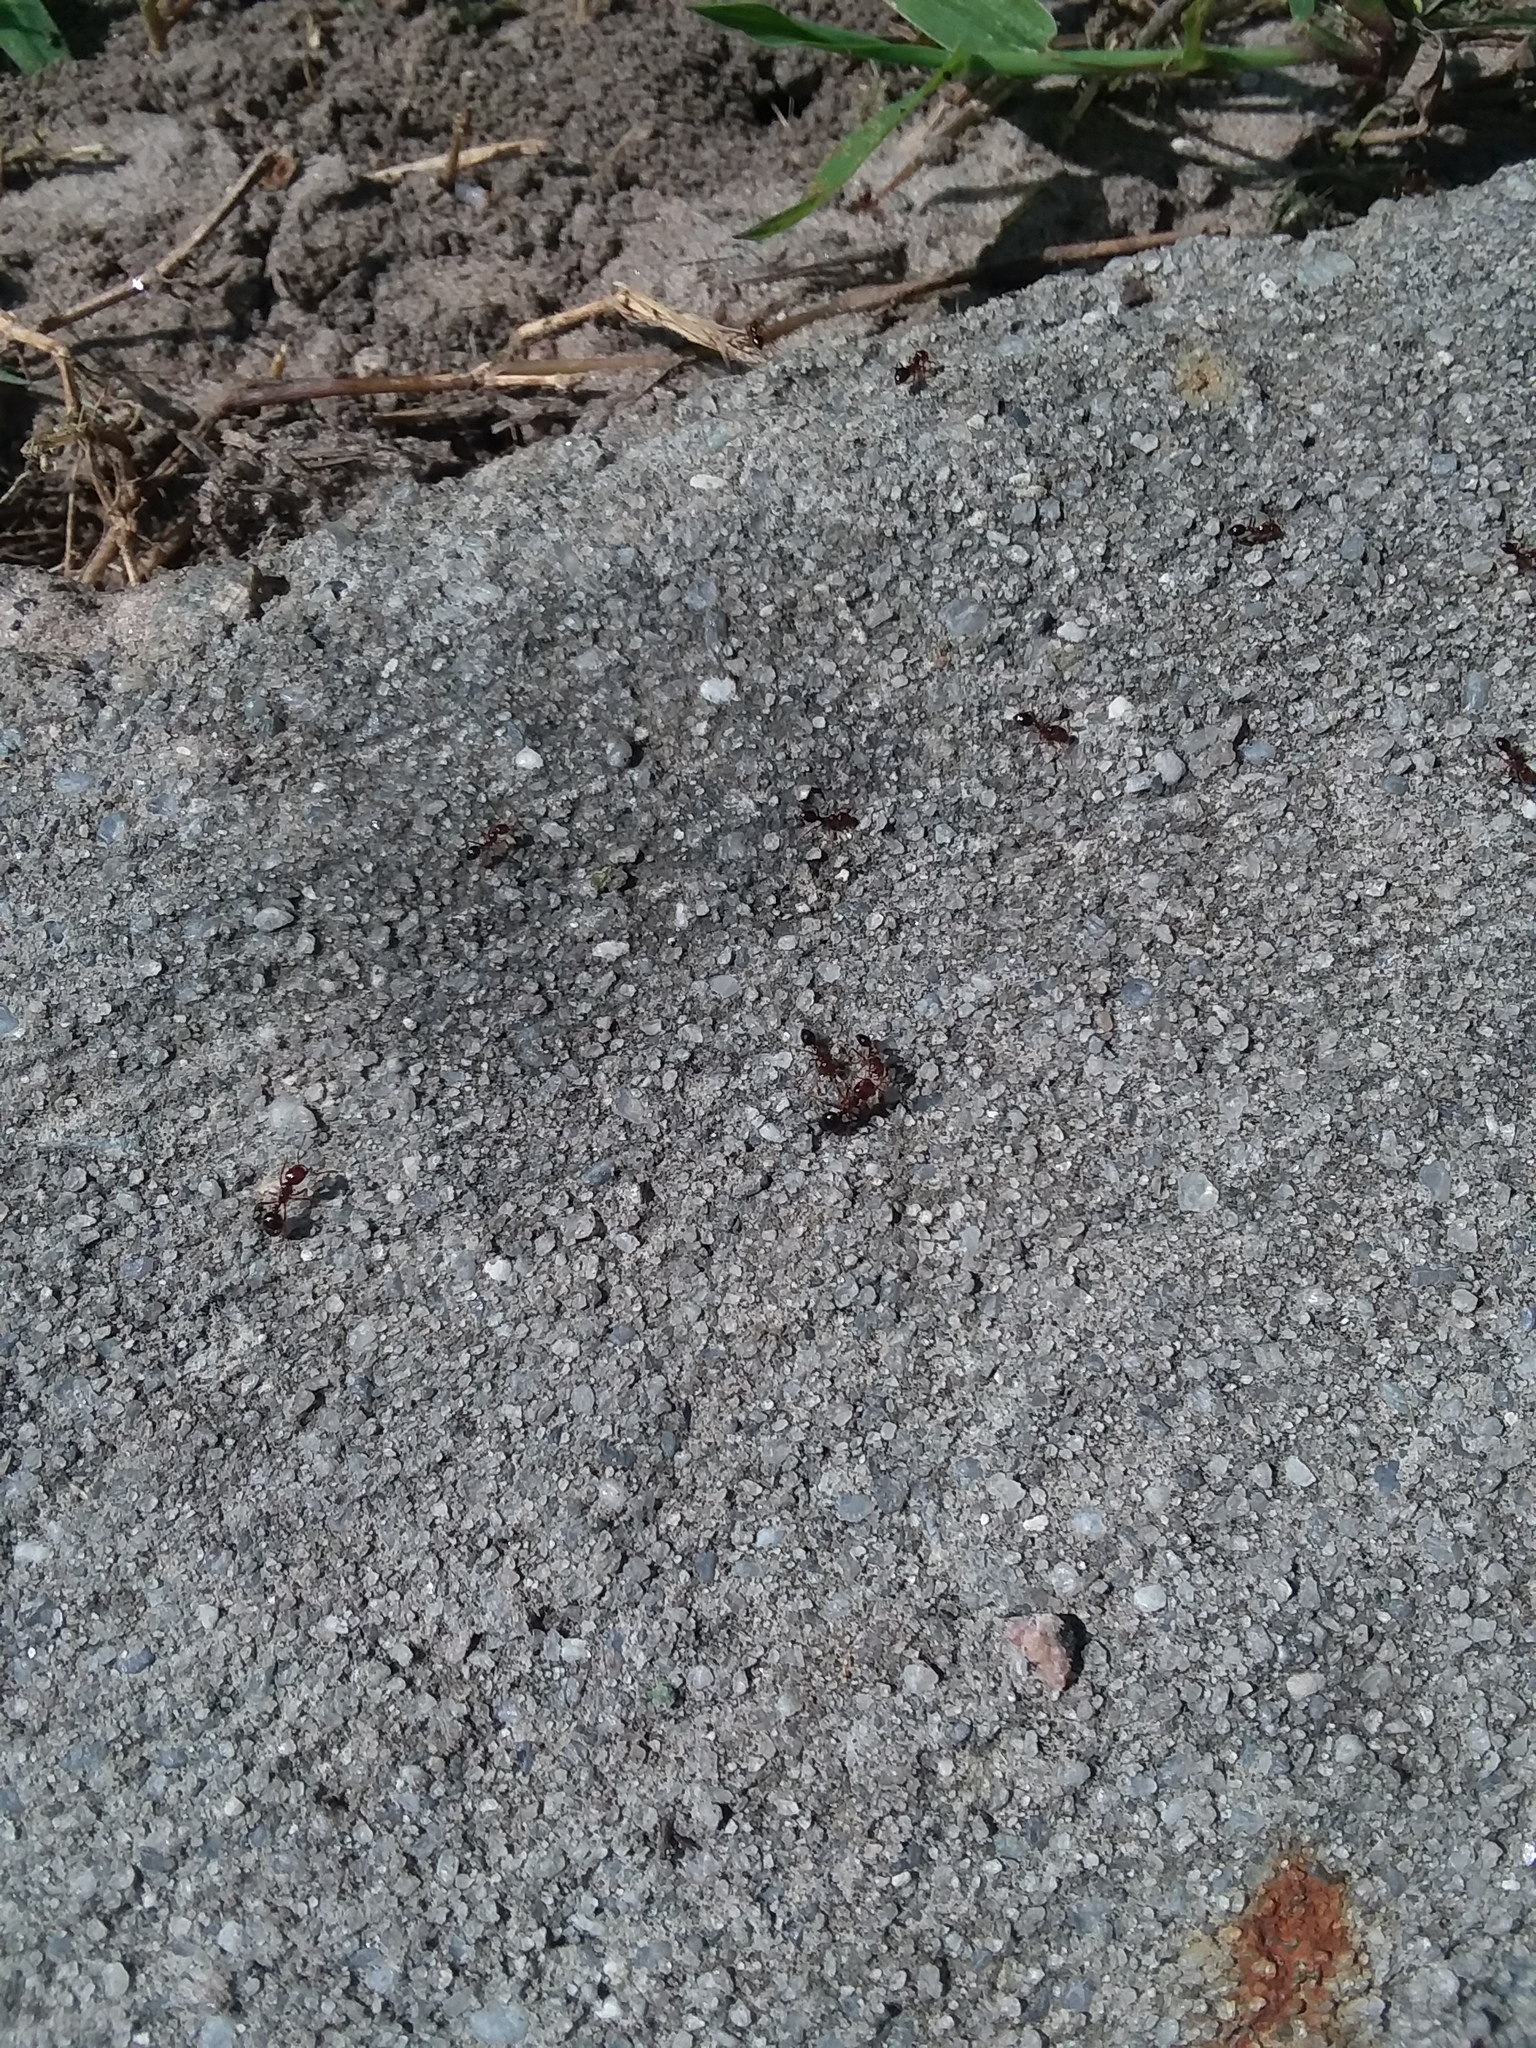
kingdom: Animalia
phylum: Arthropoda
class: Insecta
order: Hymenoptera
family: Formicidae
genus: Solenopsis
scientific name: Solenopsis invicta
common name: Red imported fire ant
